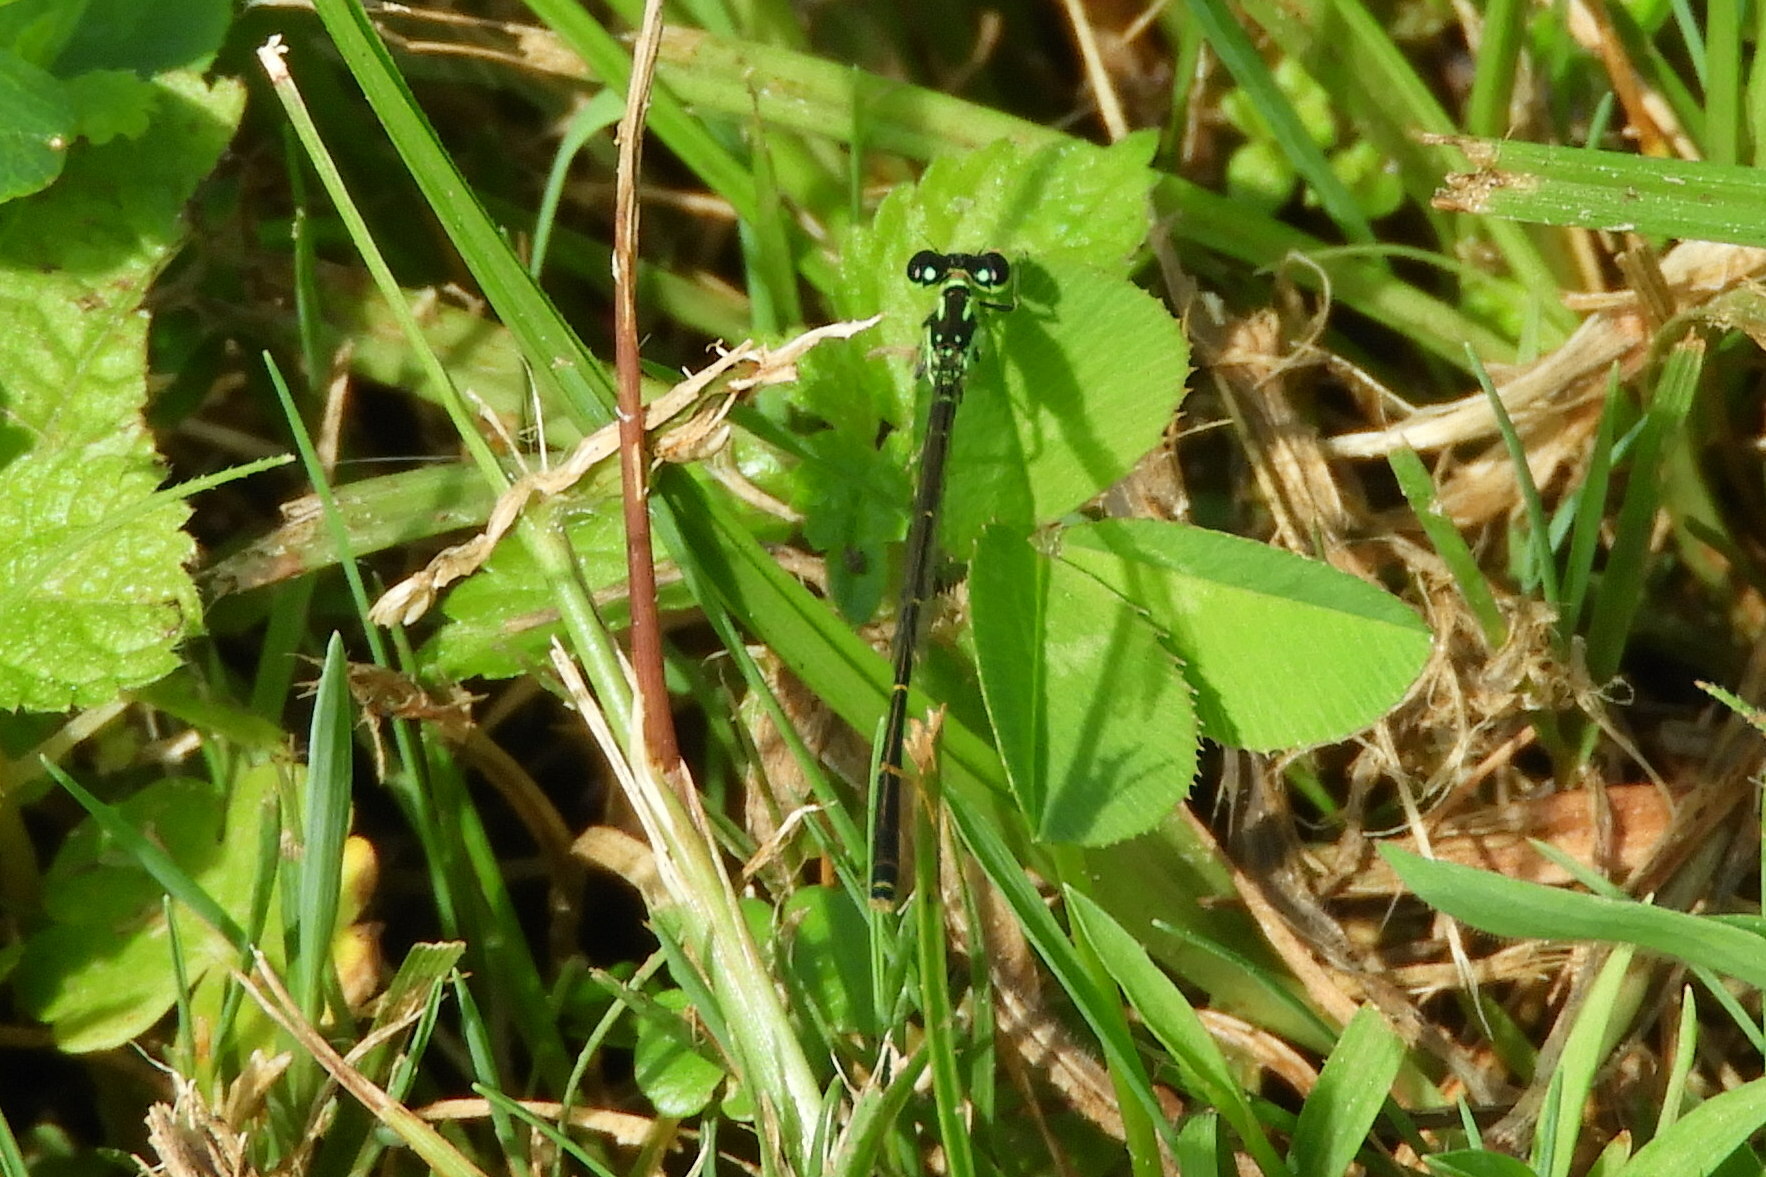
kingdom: Animalia
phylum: Arthropoda
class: Insecta
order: Odonata
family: Coenagrionidae
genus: Ischnura
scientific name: Ischnura posita
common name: Fragile forktail
